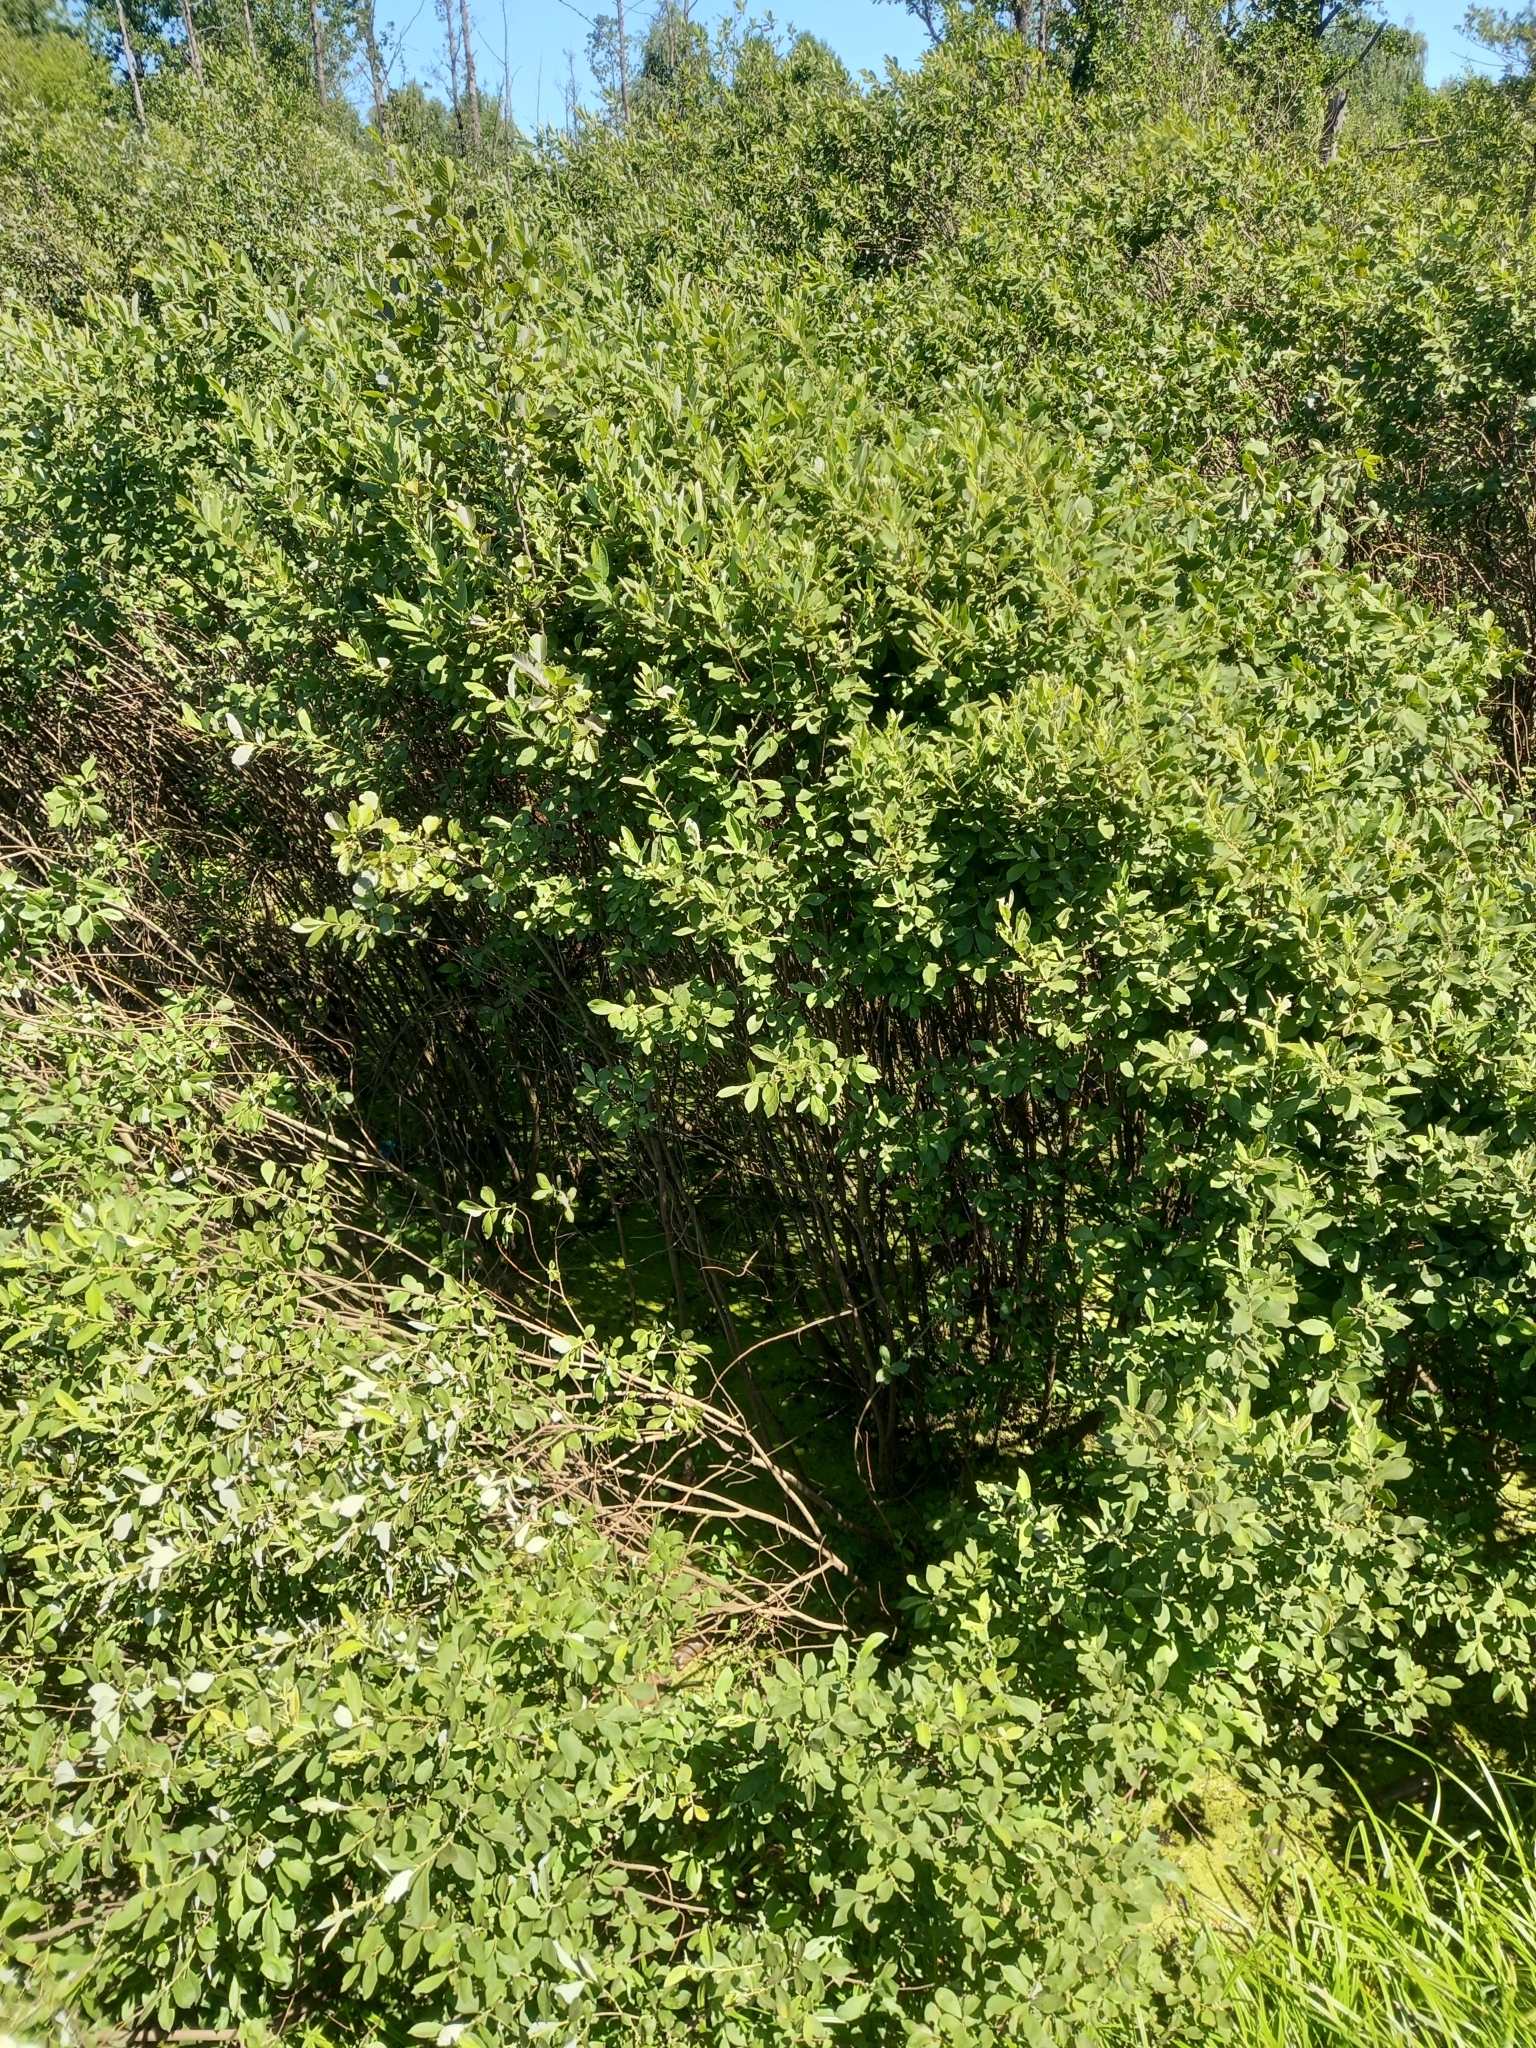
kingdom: Plantae
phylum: Tracheophyta
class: Magnoliopsida
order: Malpighiales
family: Salicaceae
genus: Salix
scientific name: Salix cinerea
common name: Common sallow
